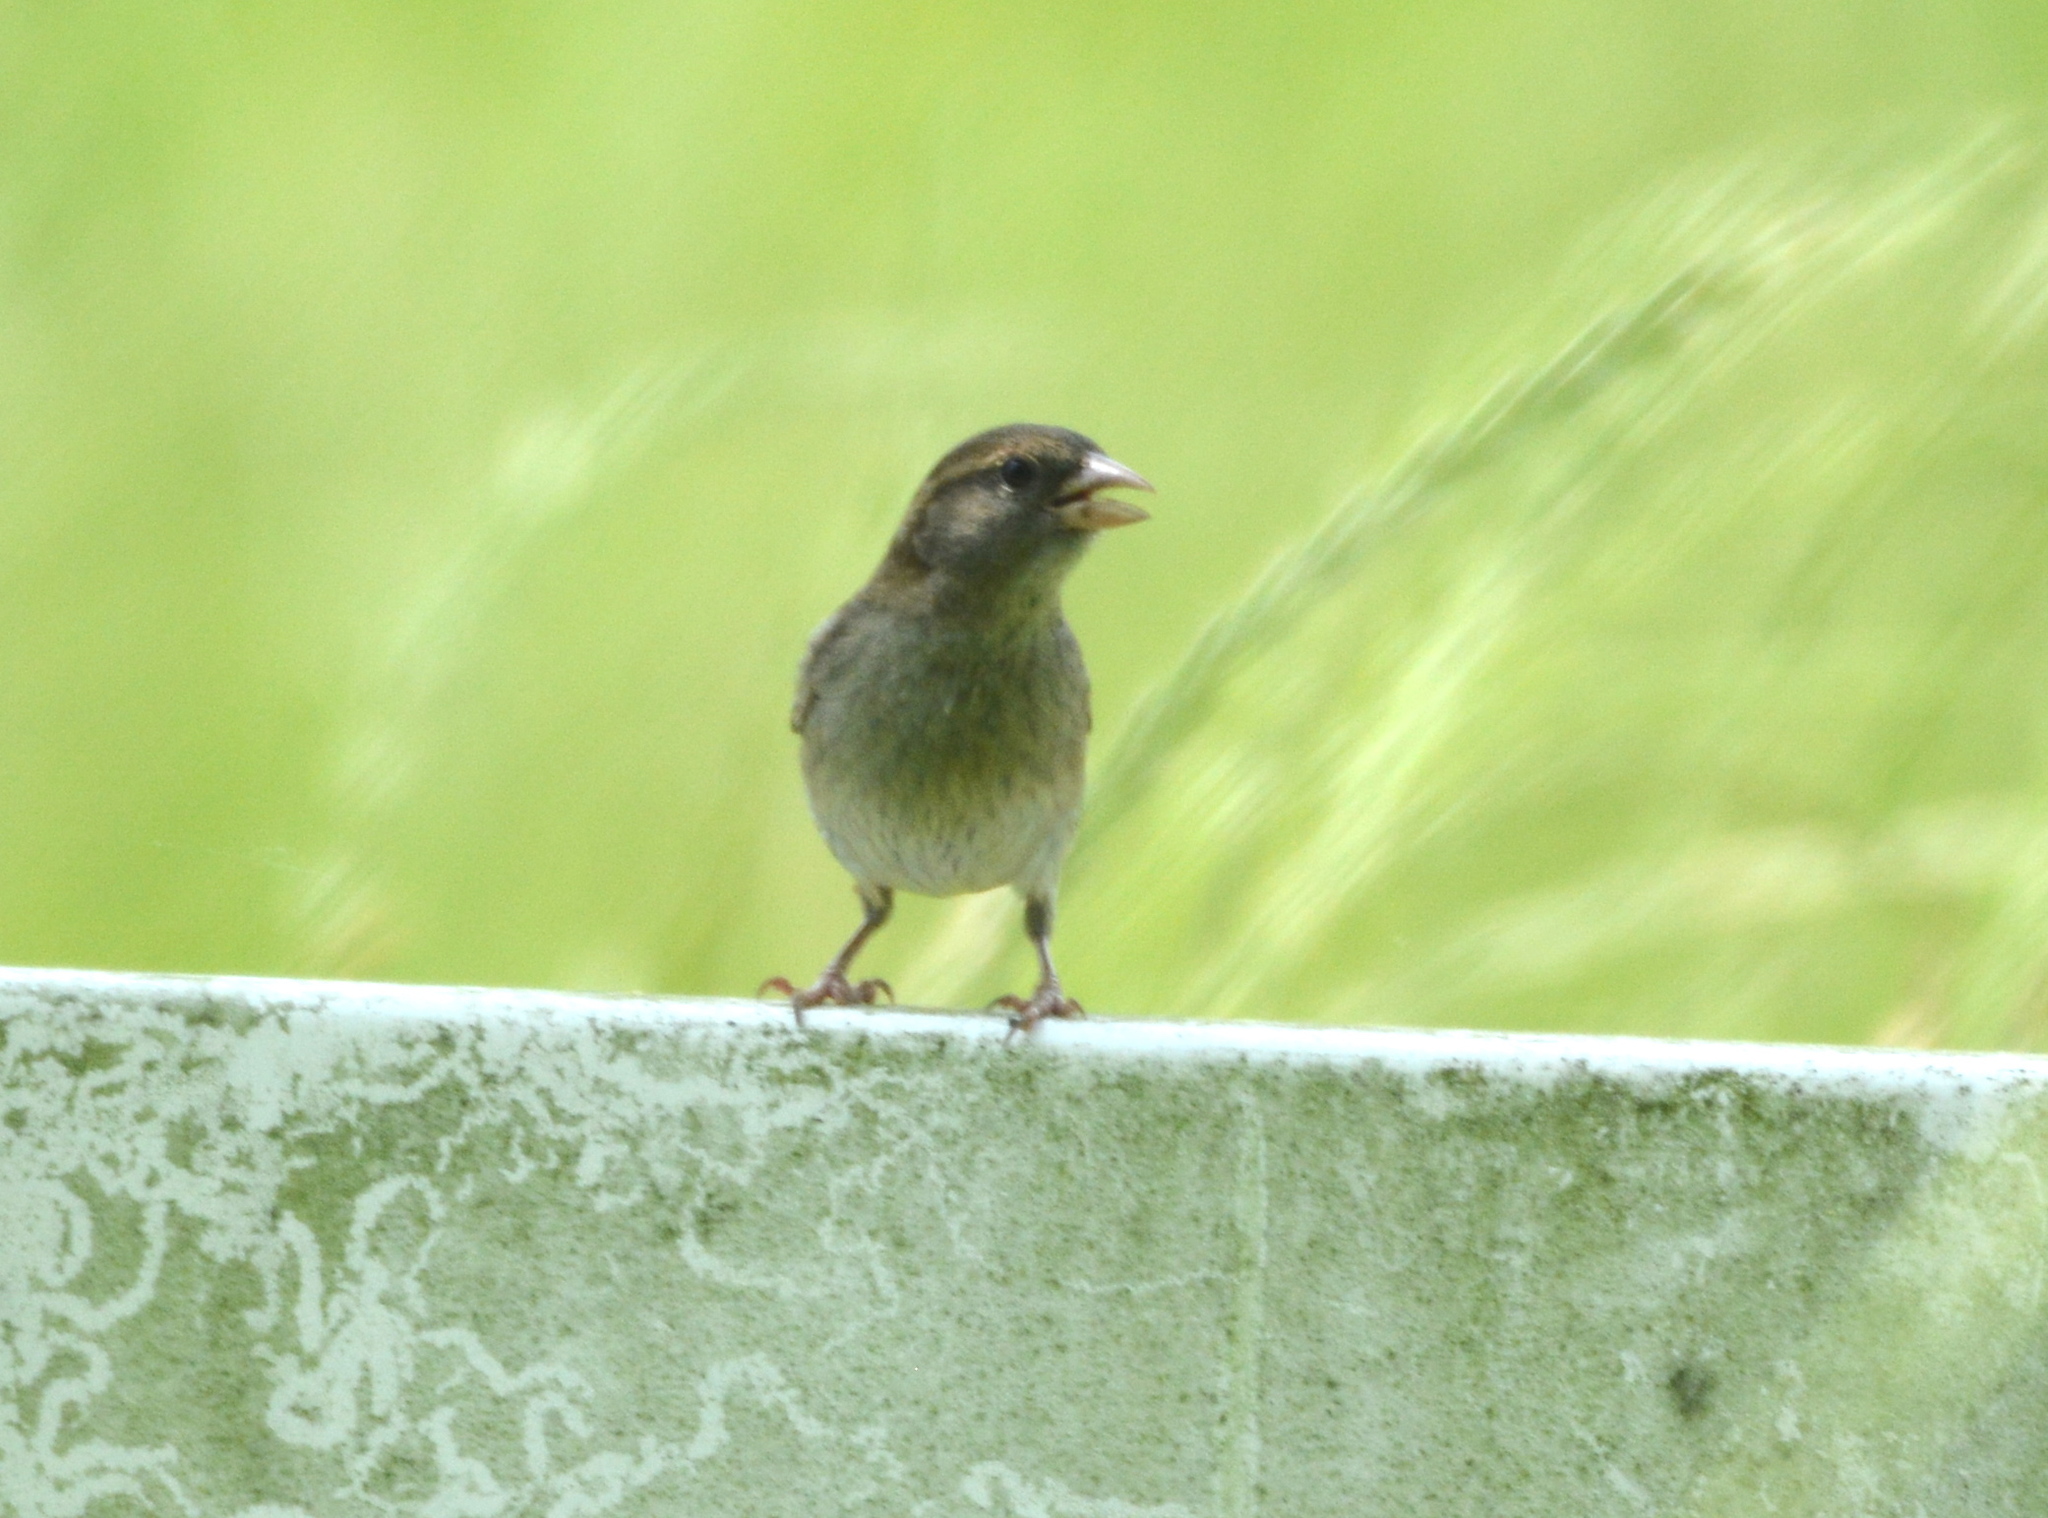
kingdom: Animalia
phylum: Chordata
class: Aves
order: Passeriformes
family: Passeridae
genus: Passer
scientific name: Passer domesticus
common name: House sparrow
